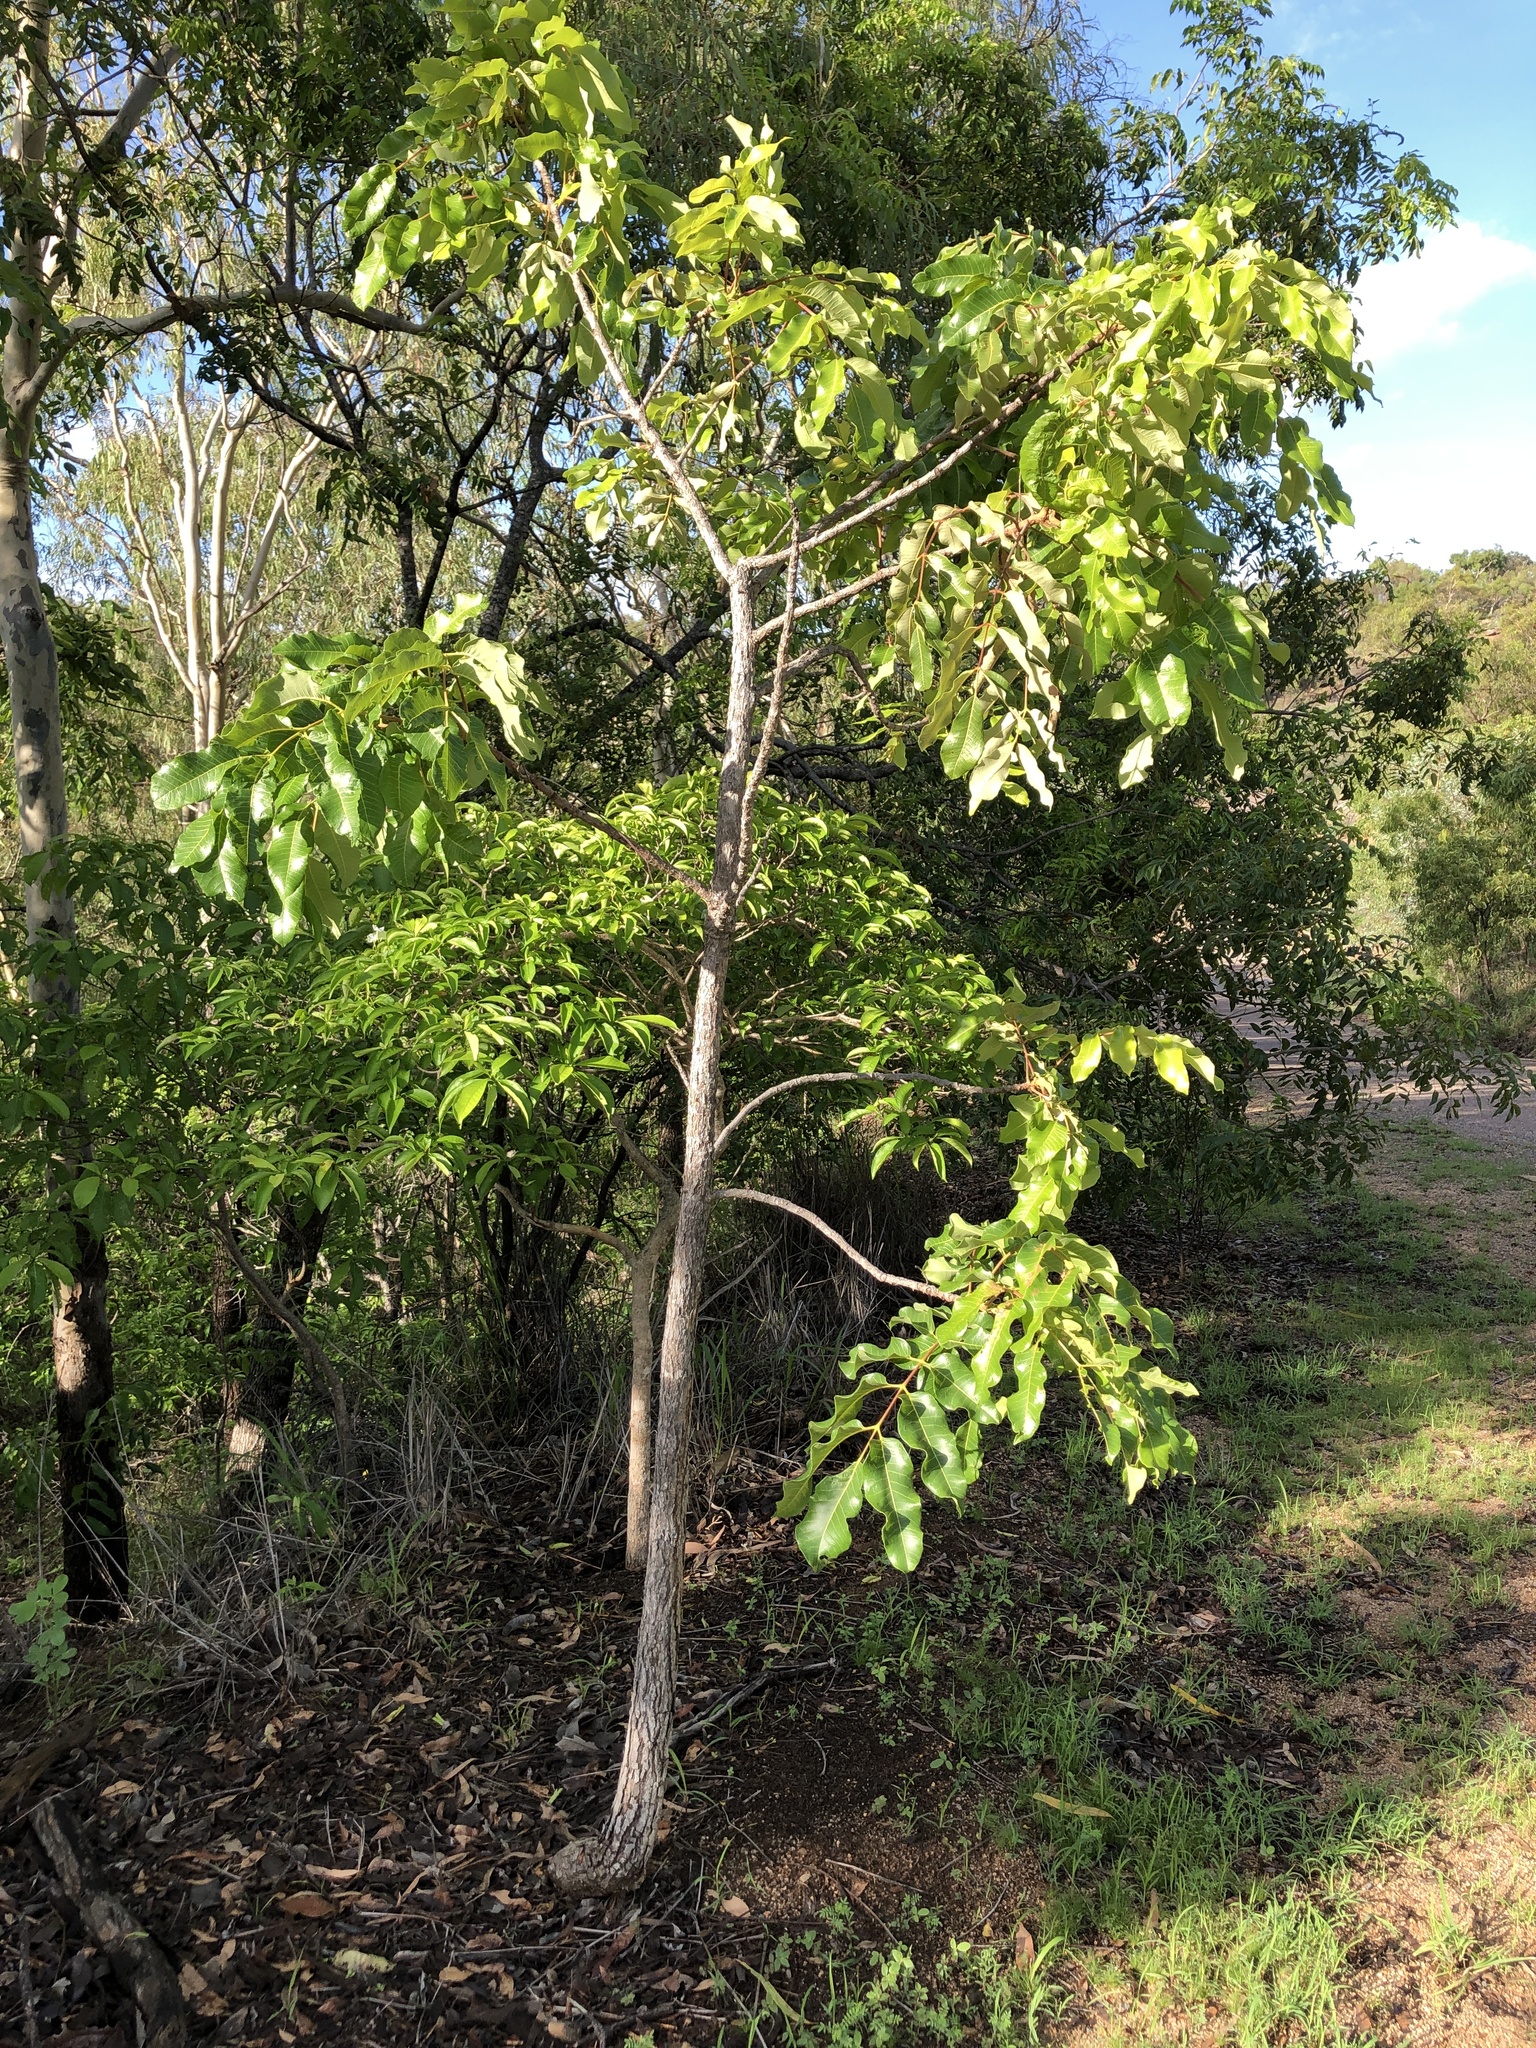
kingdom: Plantae
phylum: Tracheophyta
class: Magnoliopsida
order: Sapindales
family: Burseraceae
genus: Canarium
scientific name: Canarium australianum
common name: Island white-beech
